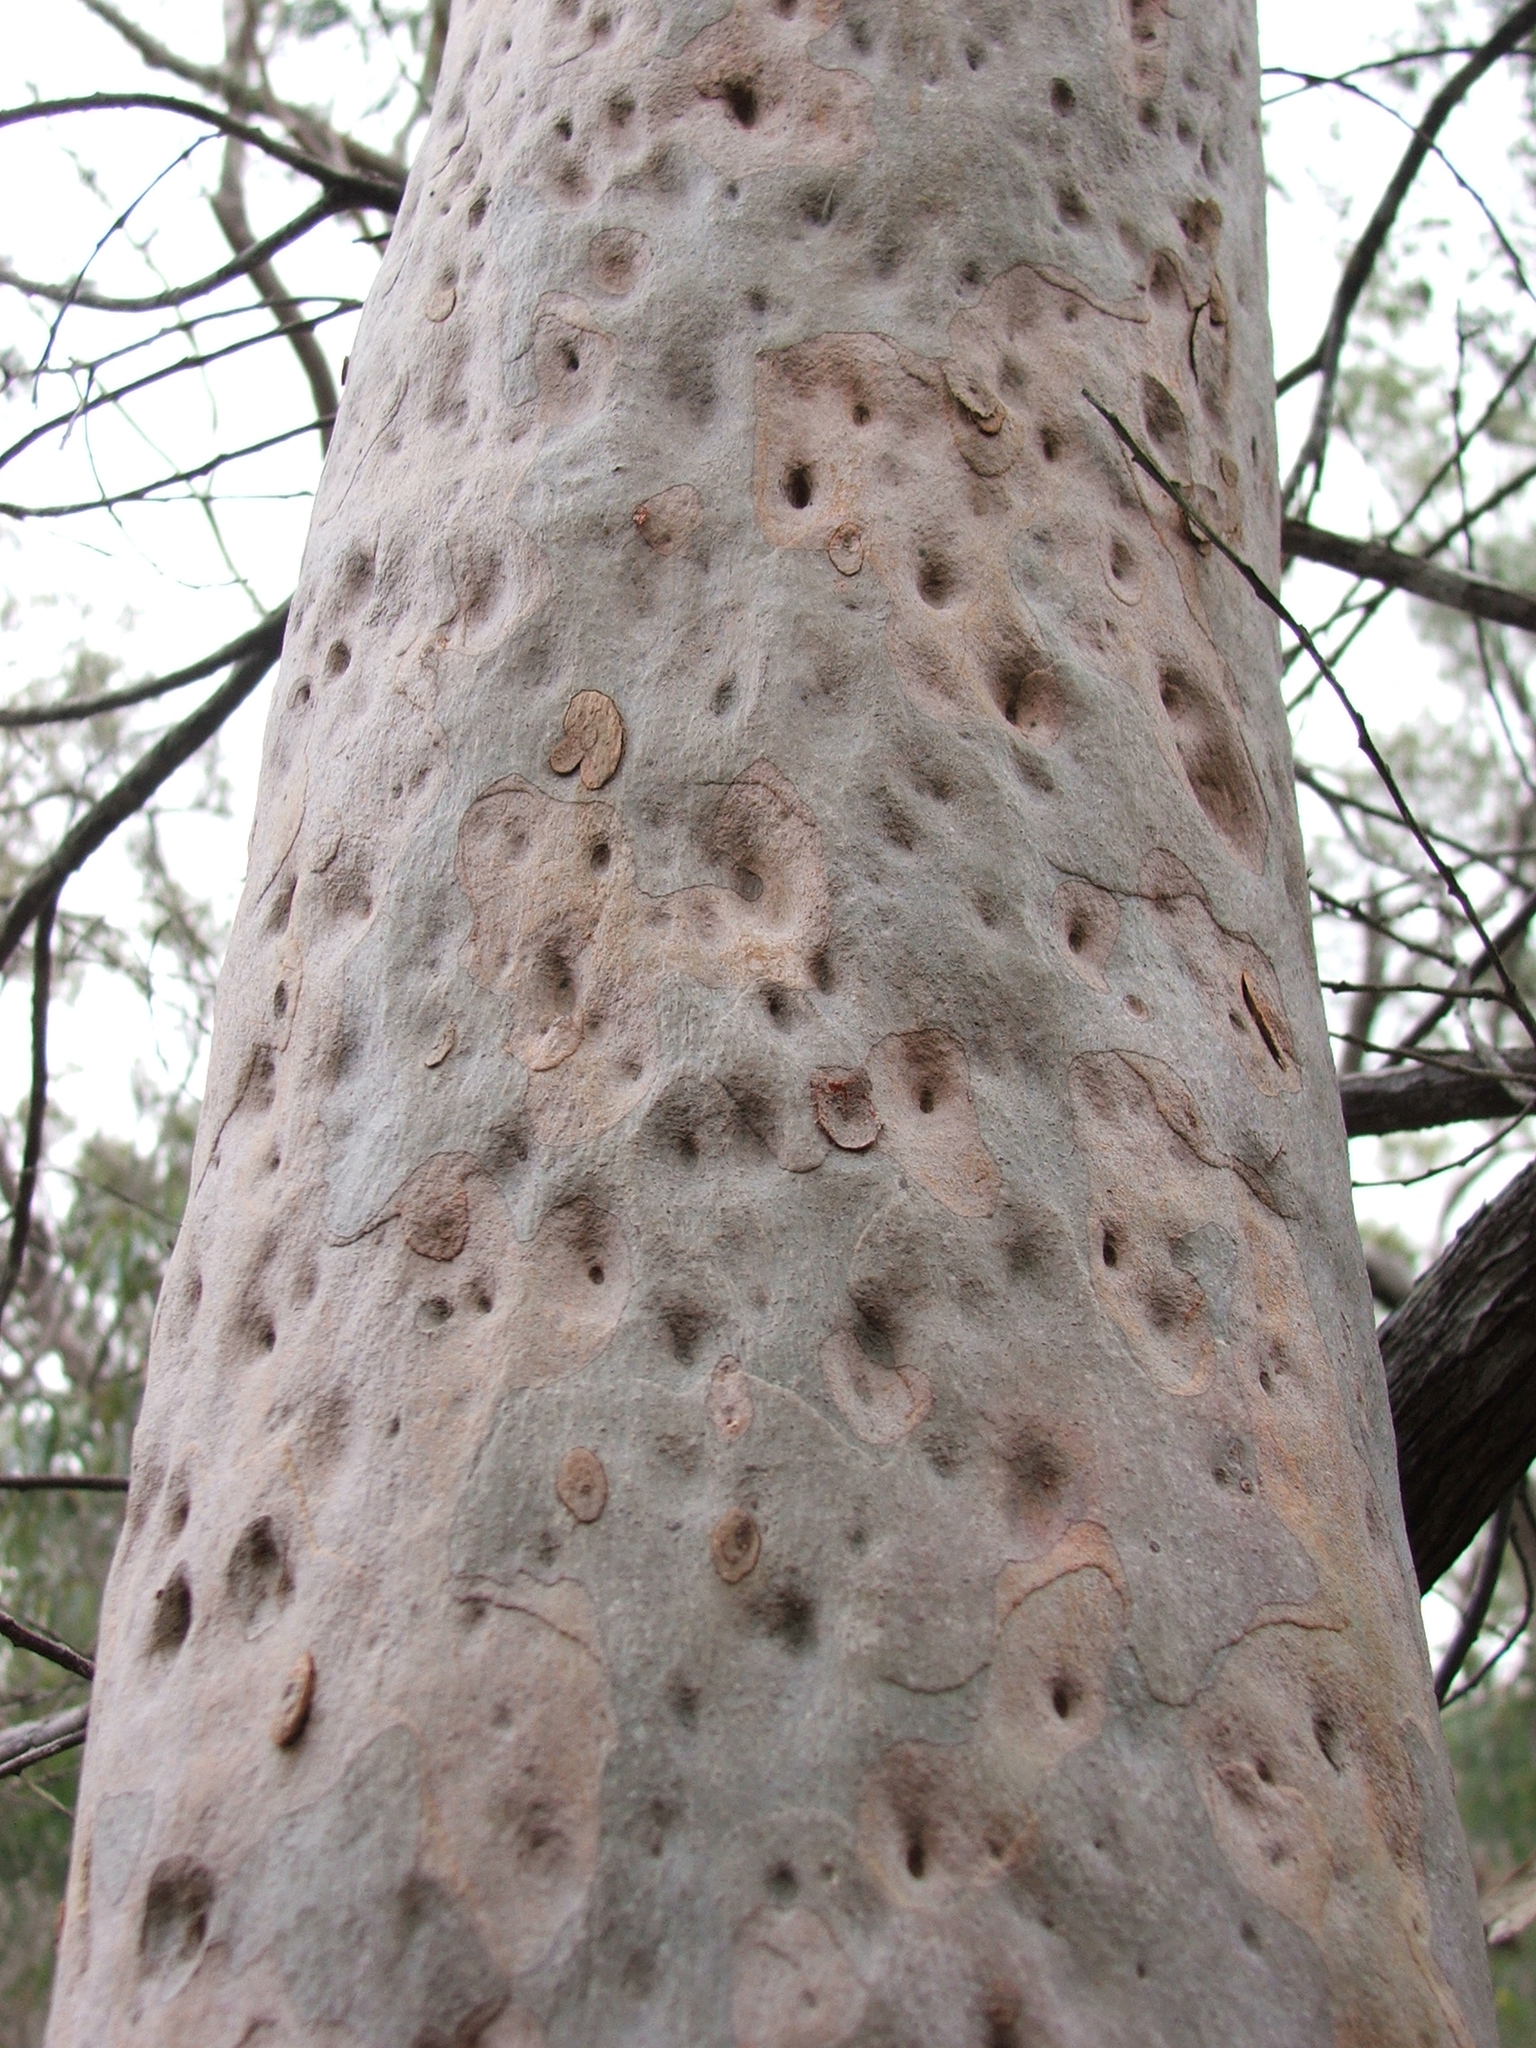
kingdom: Plantae
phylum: Tracheophyta
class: Magnoliopsida
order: Myrtales
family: Myrtaceae
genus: Corymbia
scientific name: Corymbia citriodora
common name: Lemonscented gum
